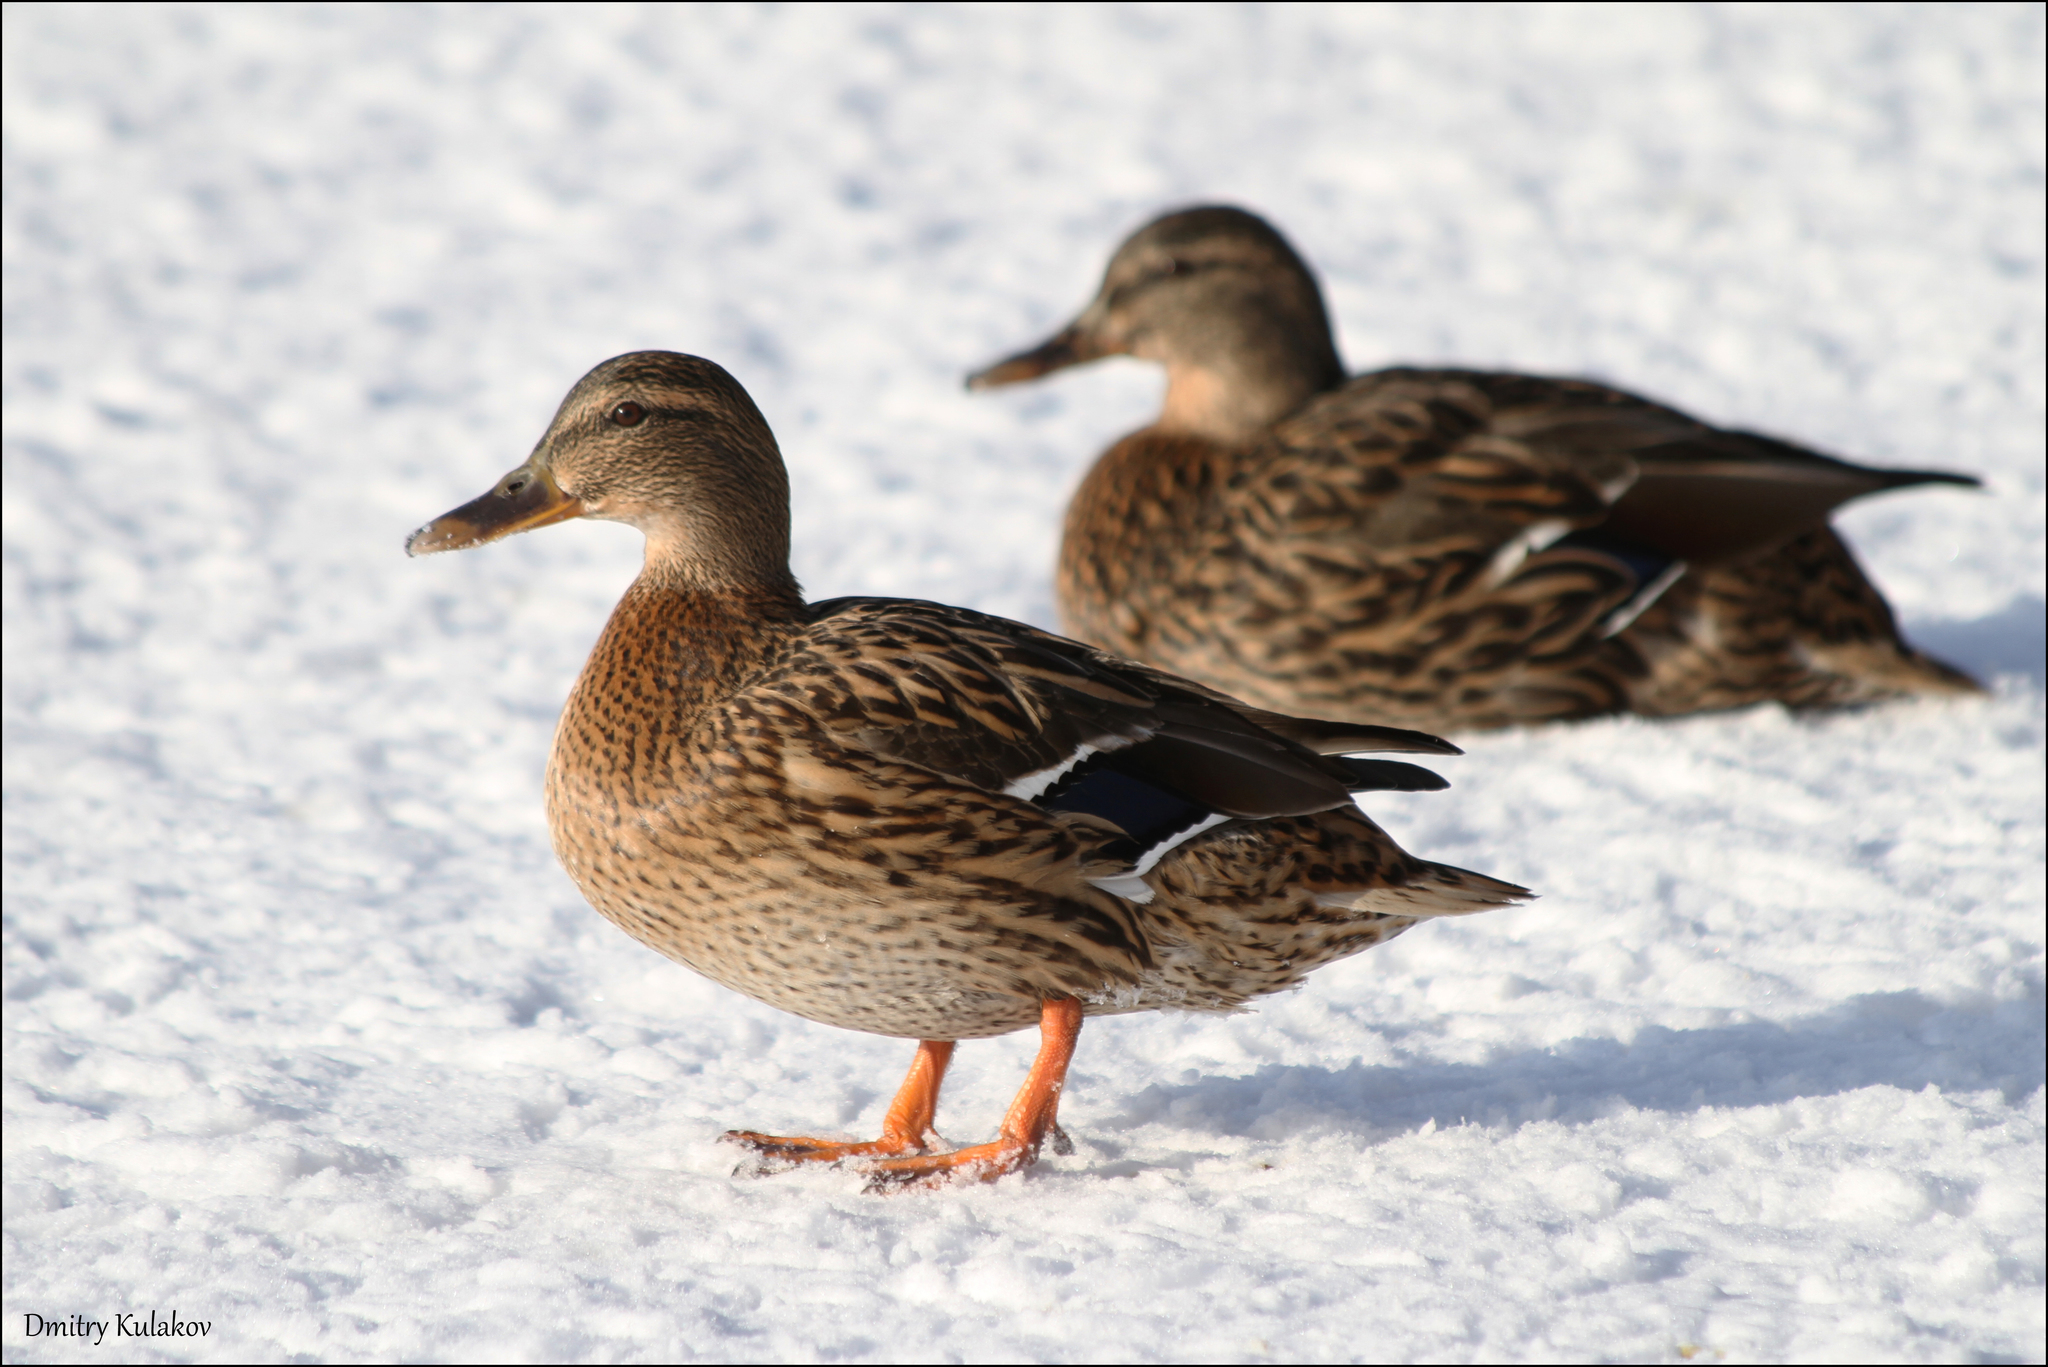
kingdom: Animalia
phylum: Chordata
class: Aves
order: Anseriformes
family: Anatidae
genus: Anas
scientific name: Anas platyrhynchos
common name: Mallard
